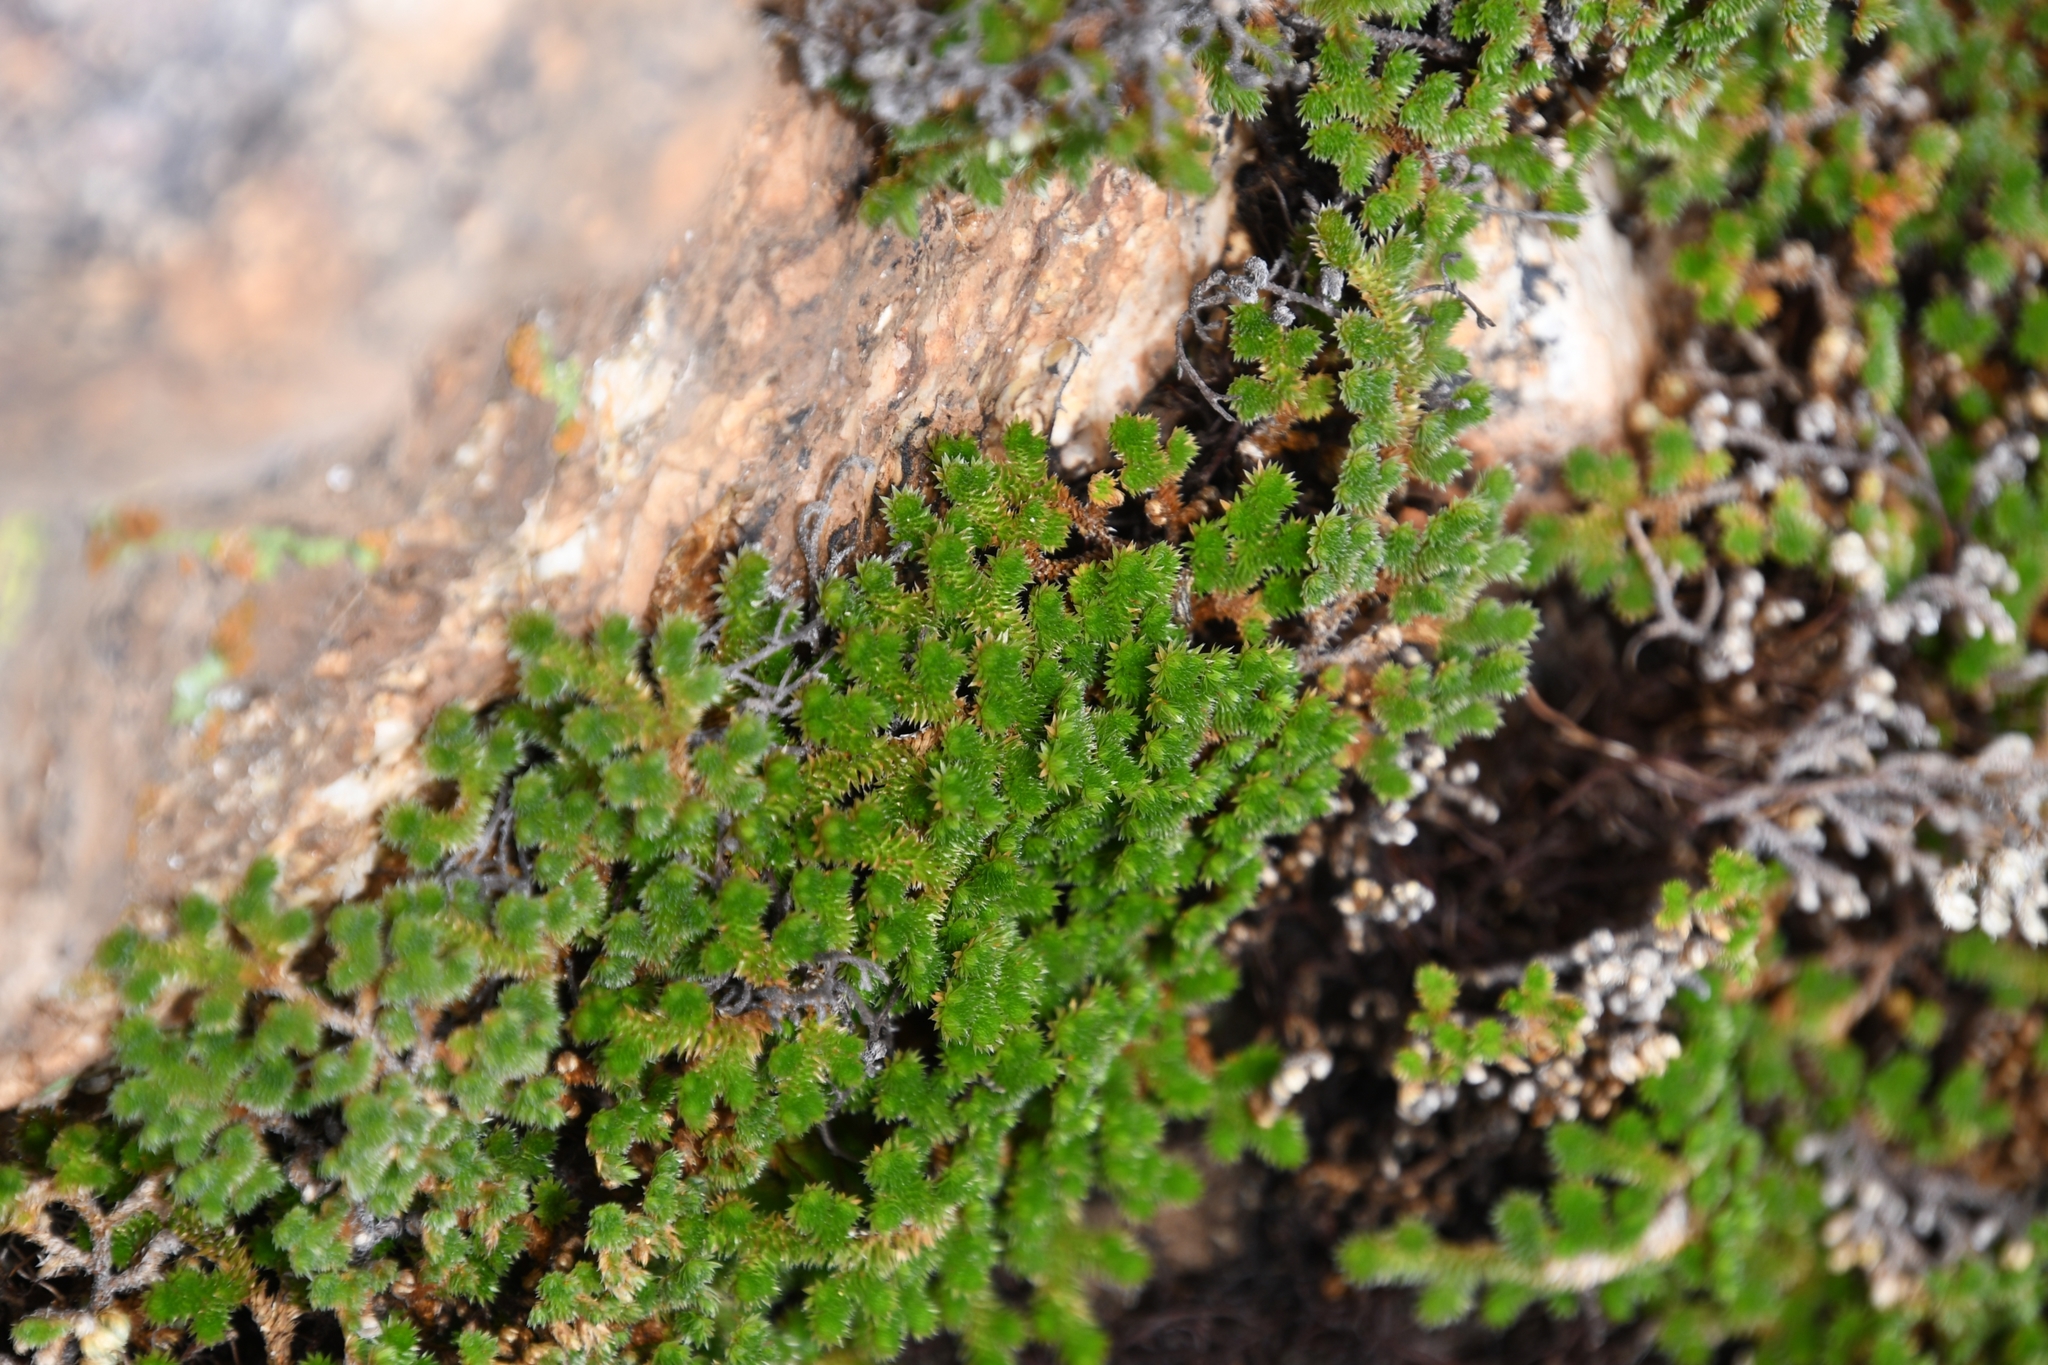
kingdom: Plantae
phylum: Tracheophyta
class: Lycopodiopsida
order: Selaginellales
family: Selaginellaceae
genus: Selaginella
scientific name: Selaginella arizonica
